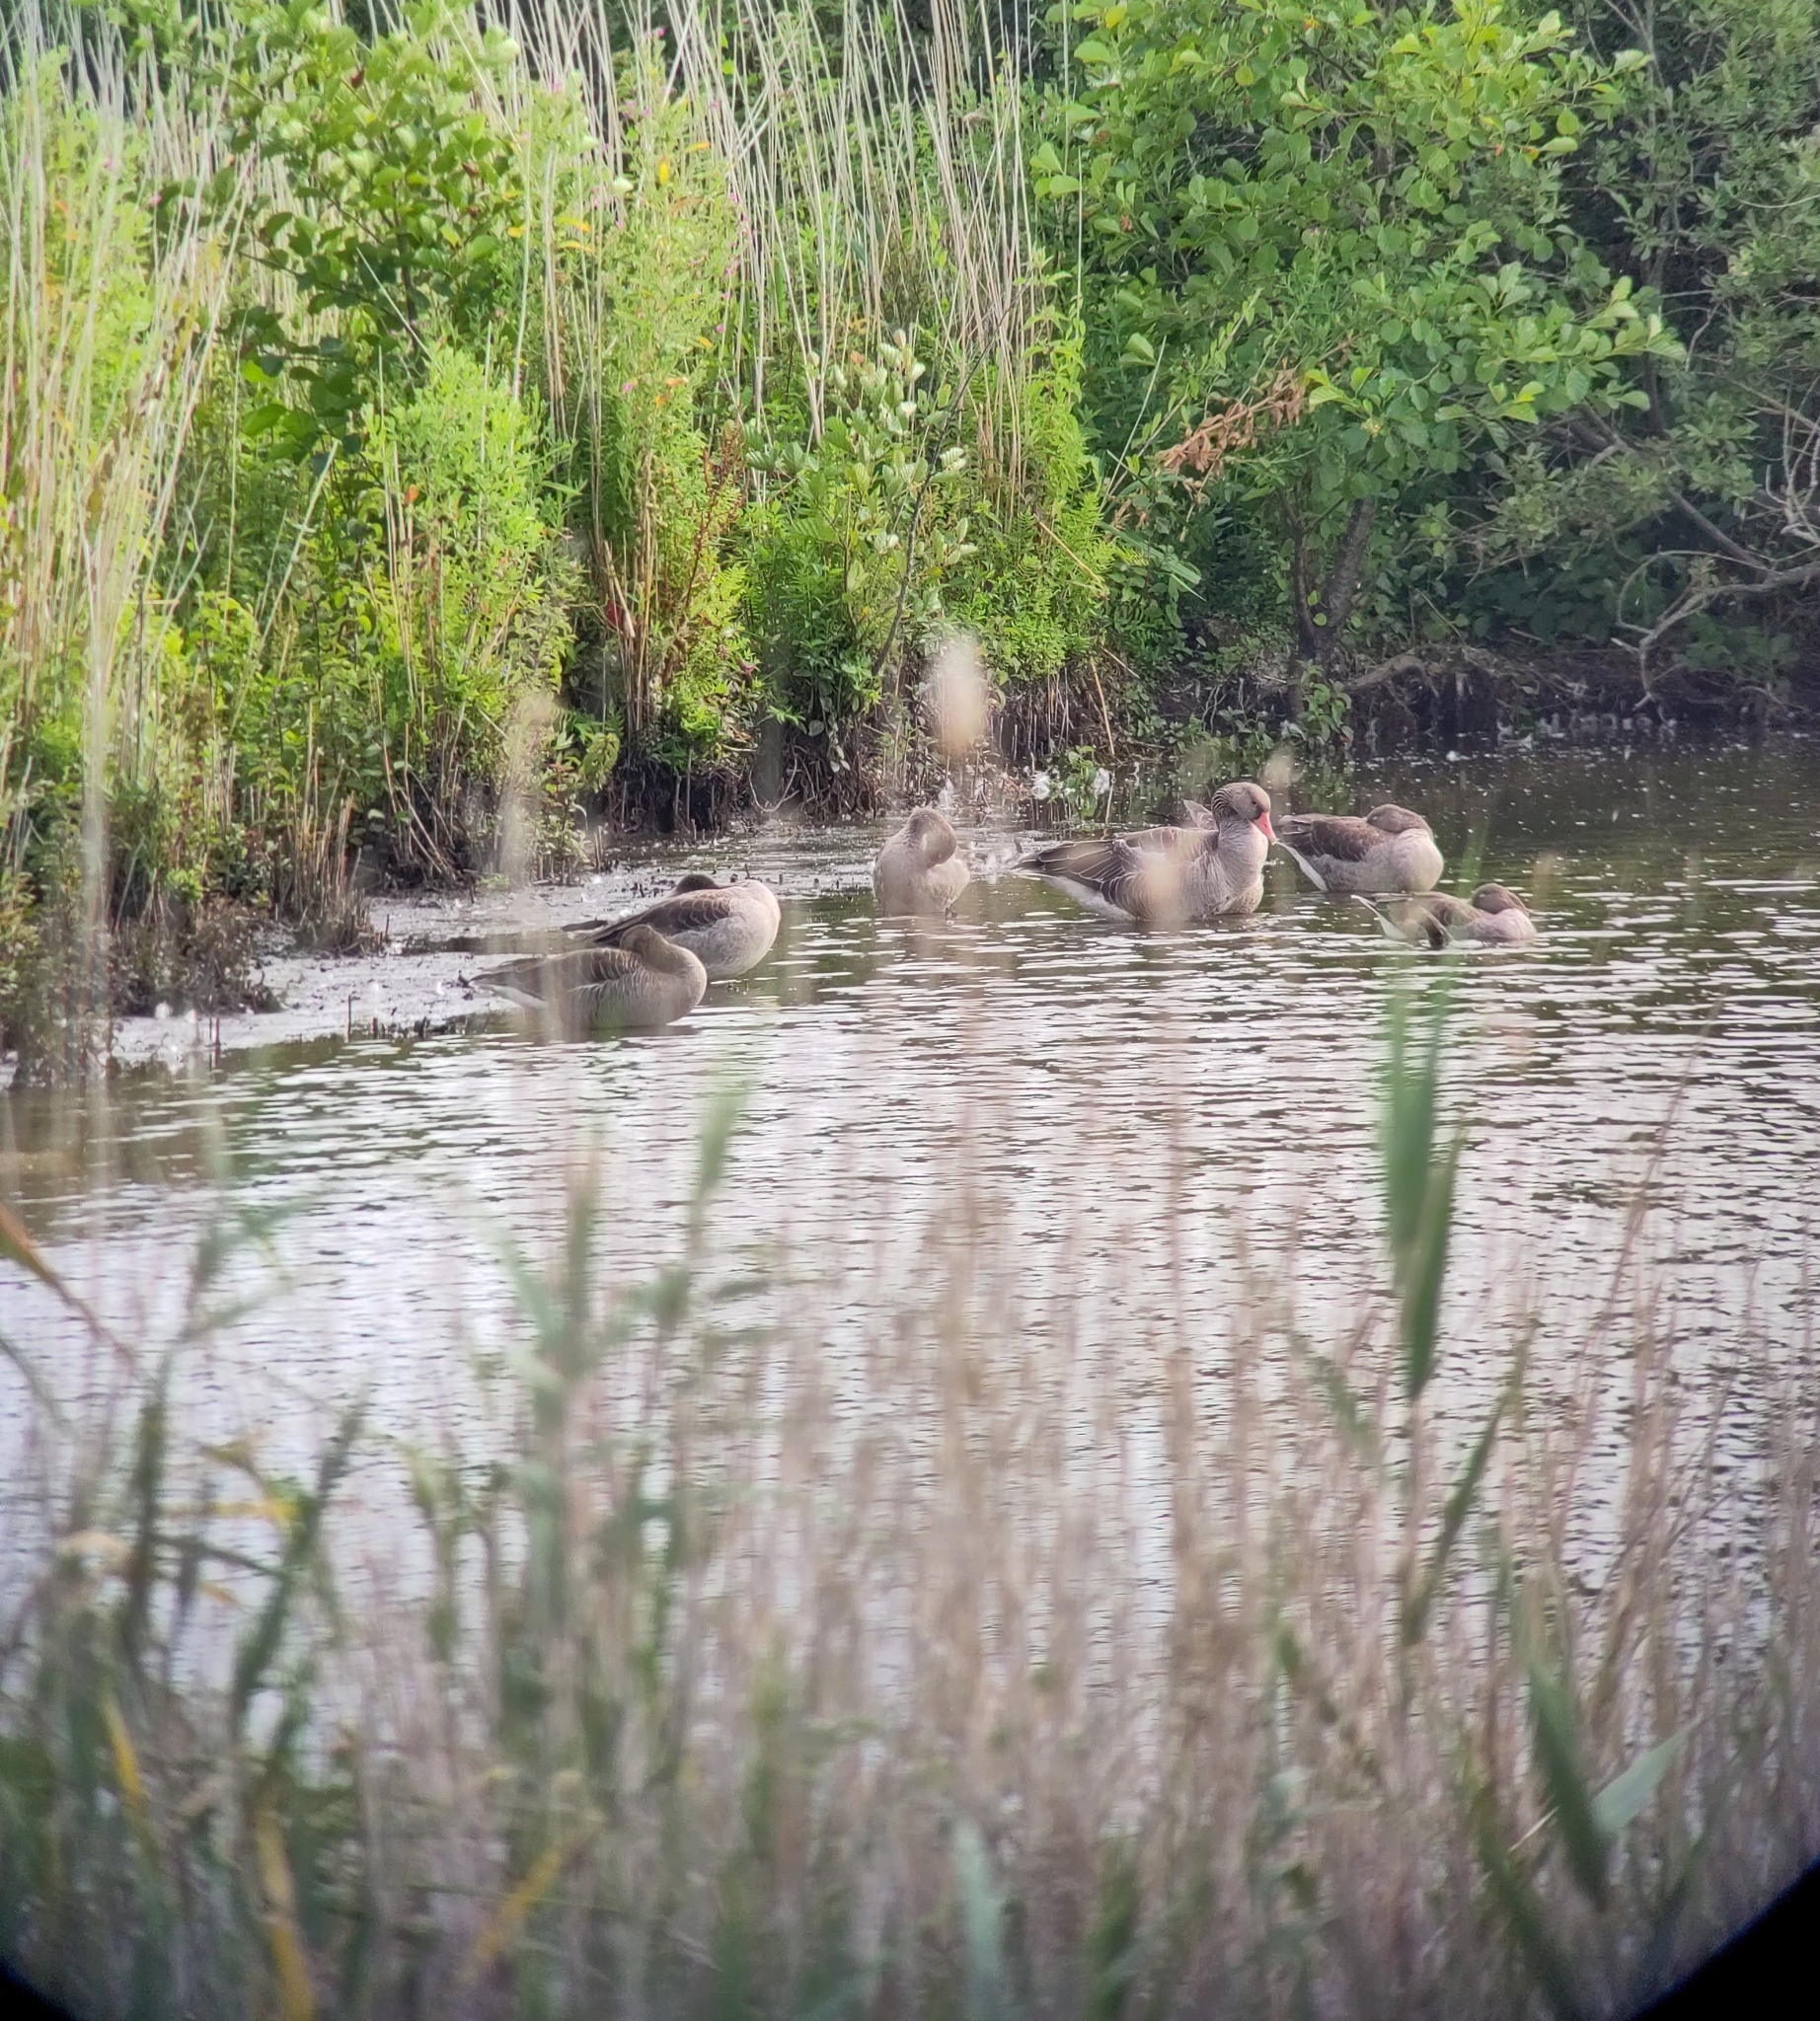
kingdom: Animalia
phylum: Chordata
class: Aves
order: Anseriformes
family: Anatidae
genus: Anser
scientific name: Anser anser
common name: Greylag goose
